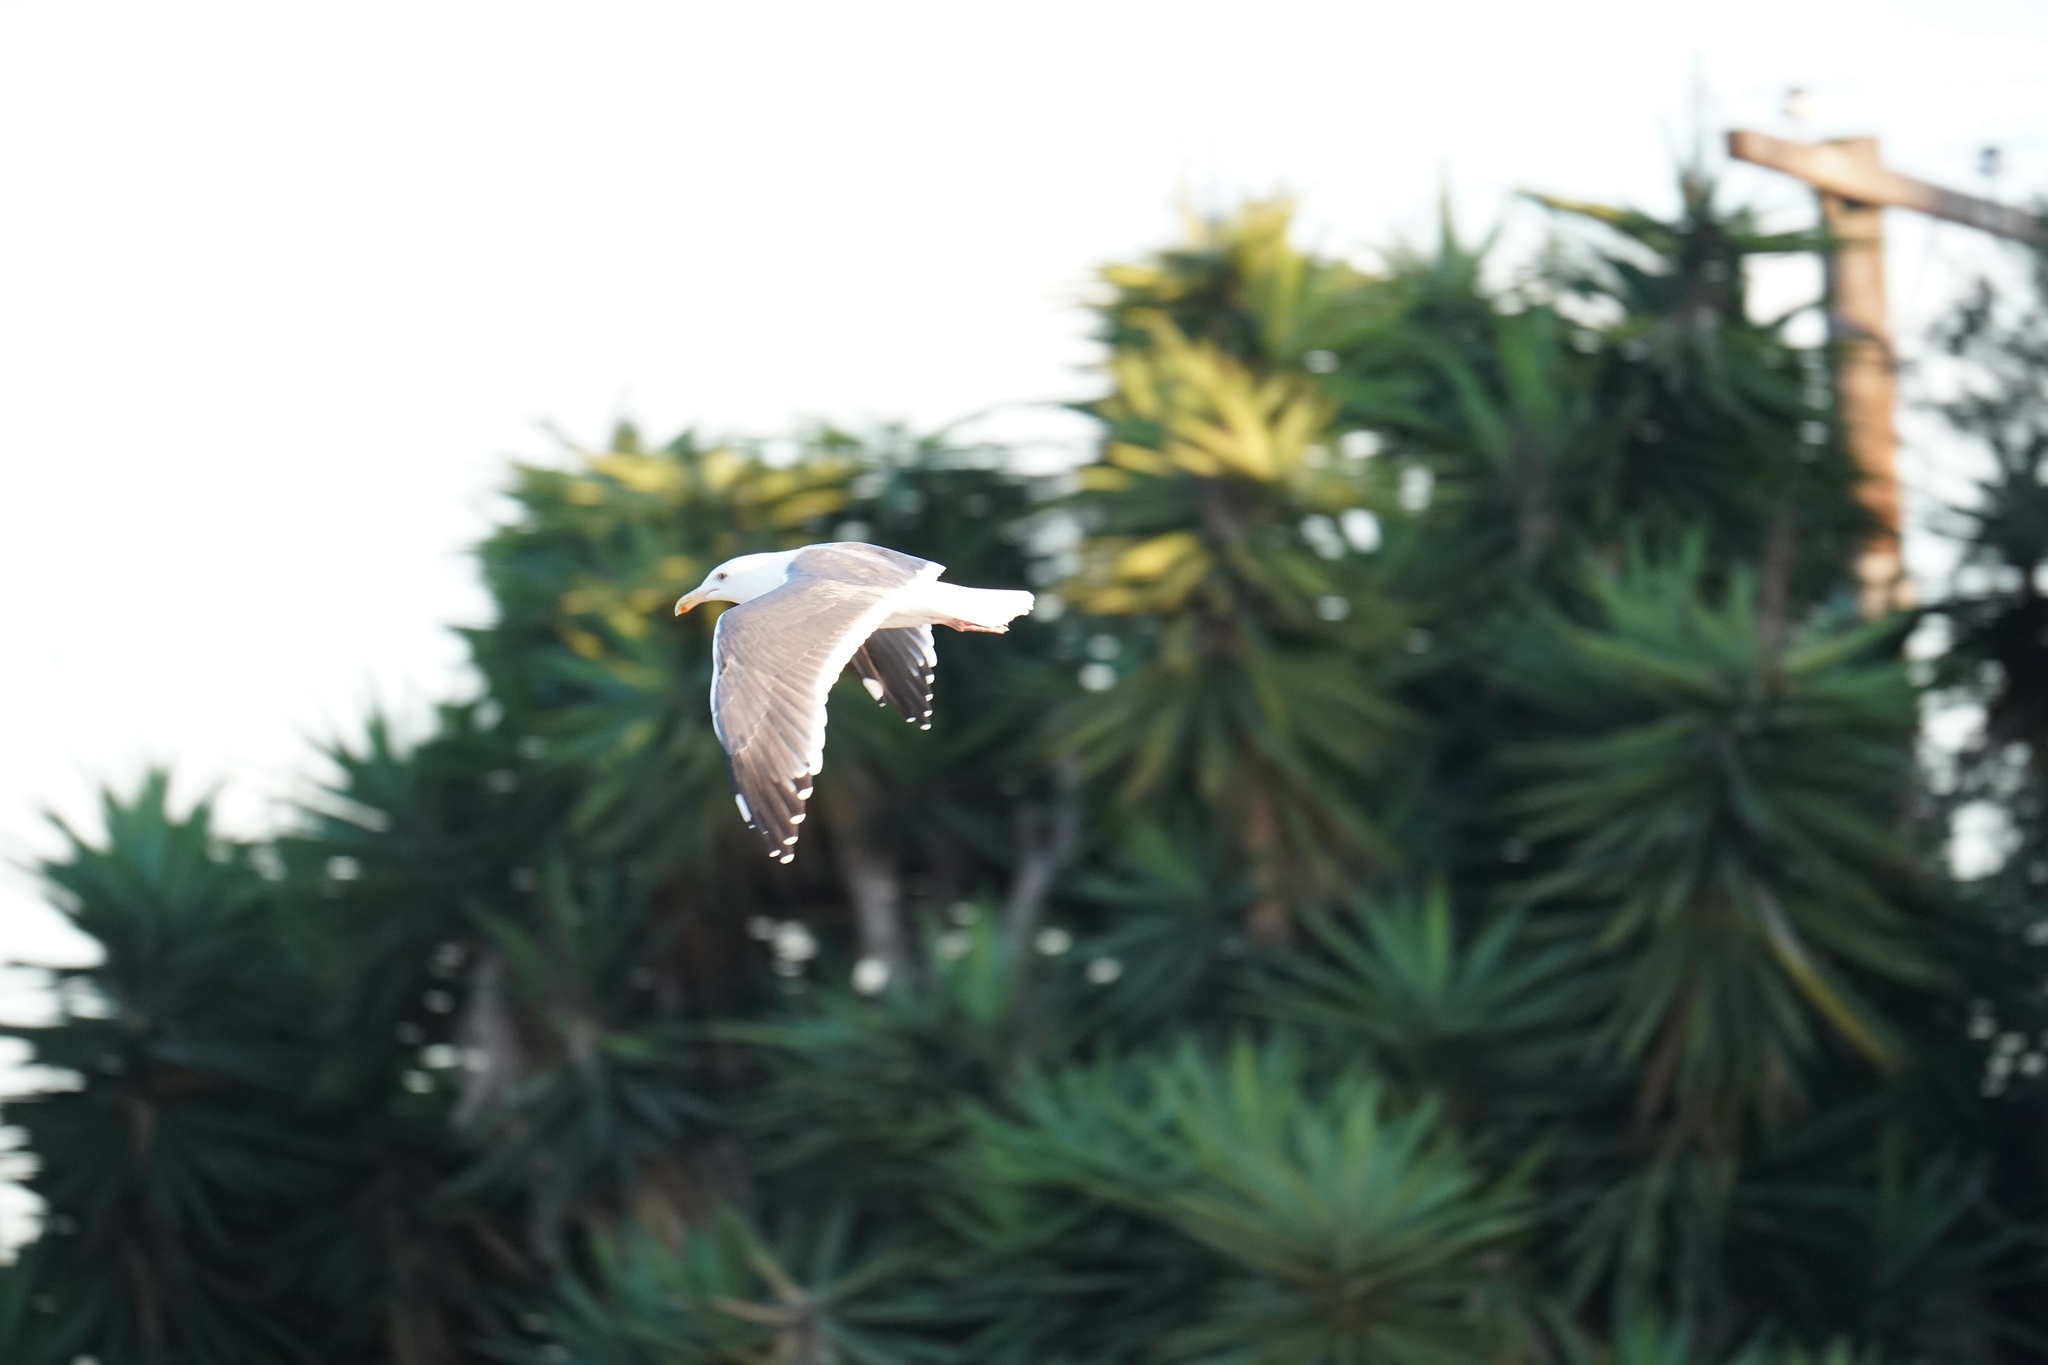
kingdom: Animalia
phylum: Chordata
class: Aves
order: Charadriiformes
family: Laridae
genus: Larus
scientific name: Larus occidentalis
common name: Western gull
